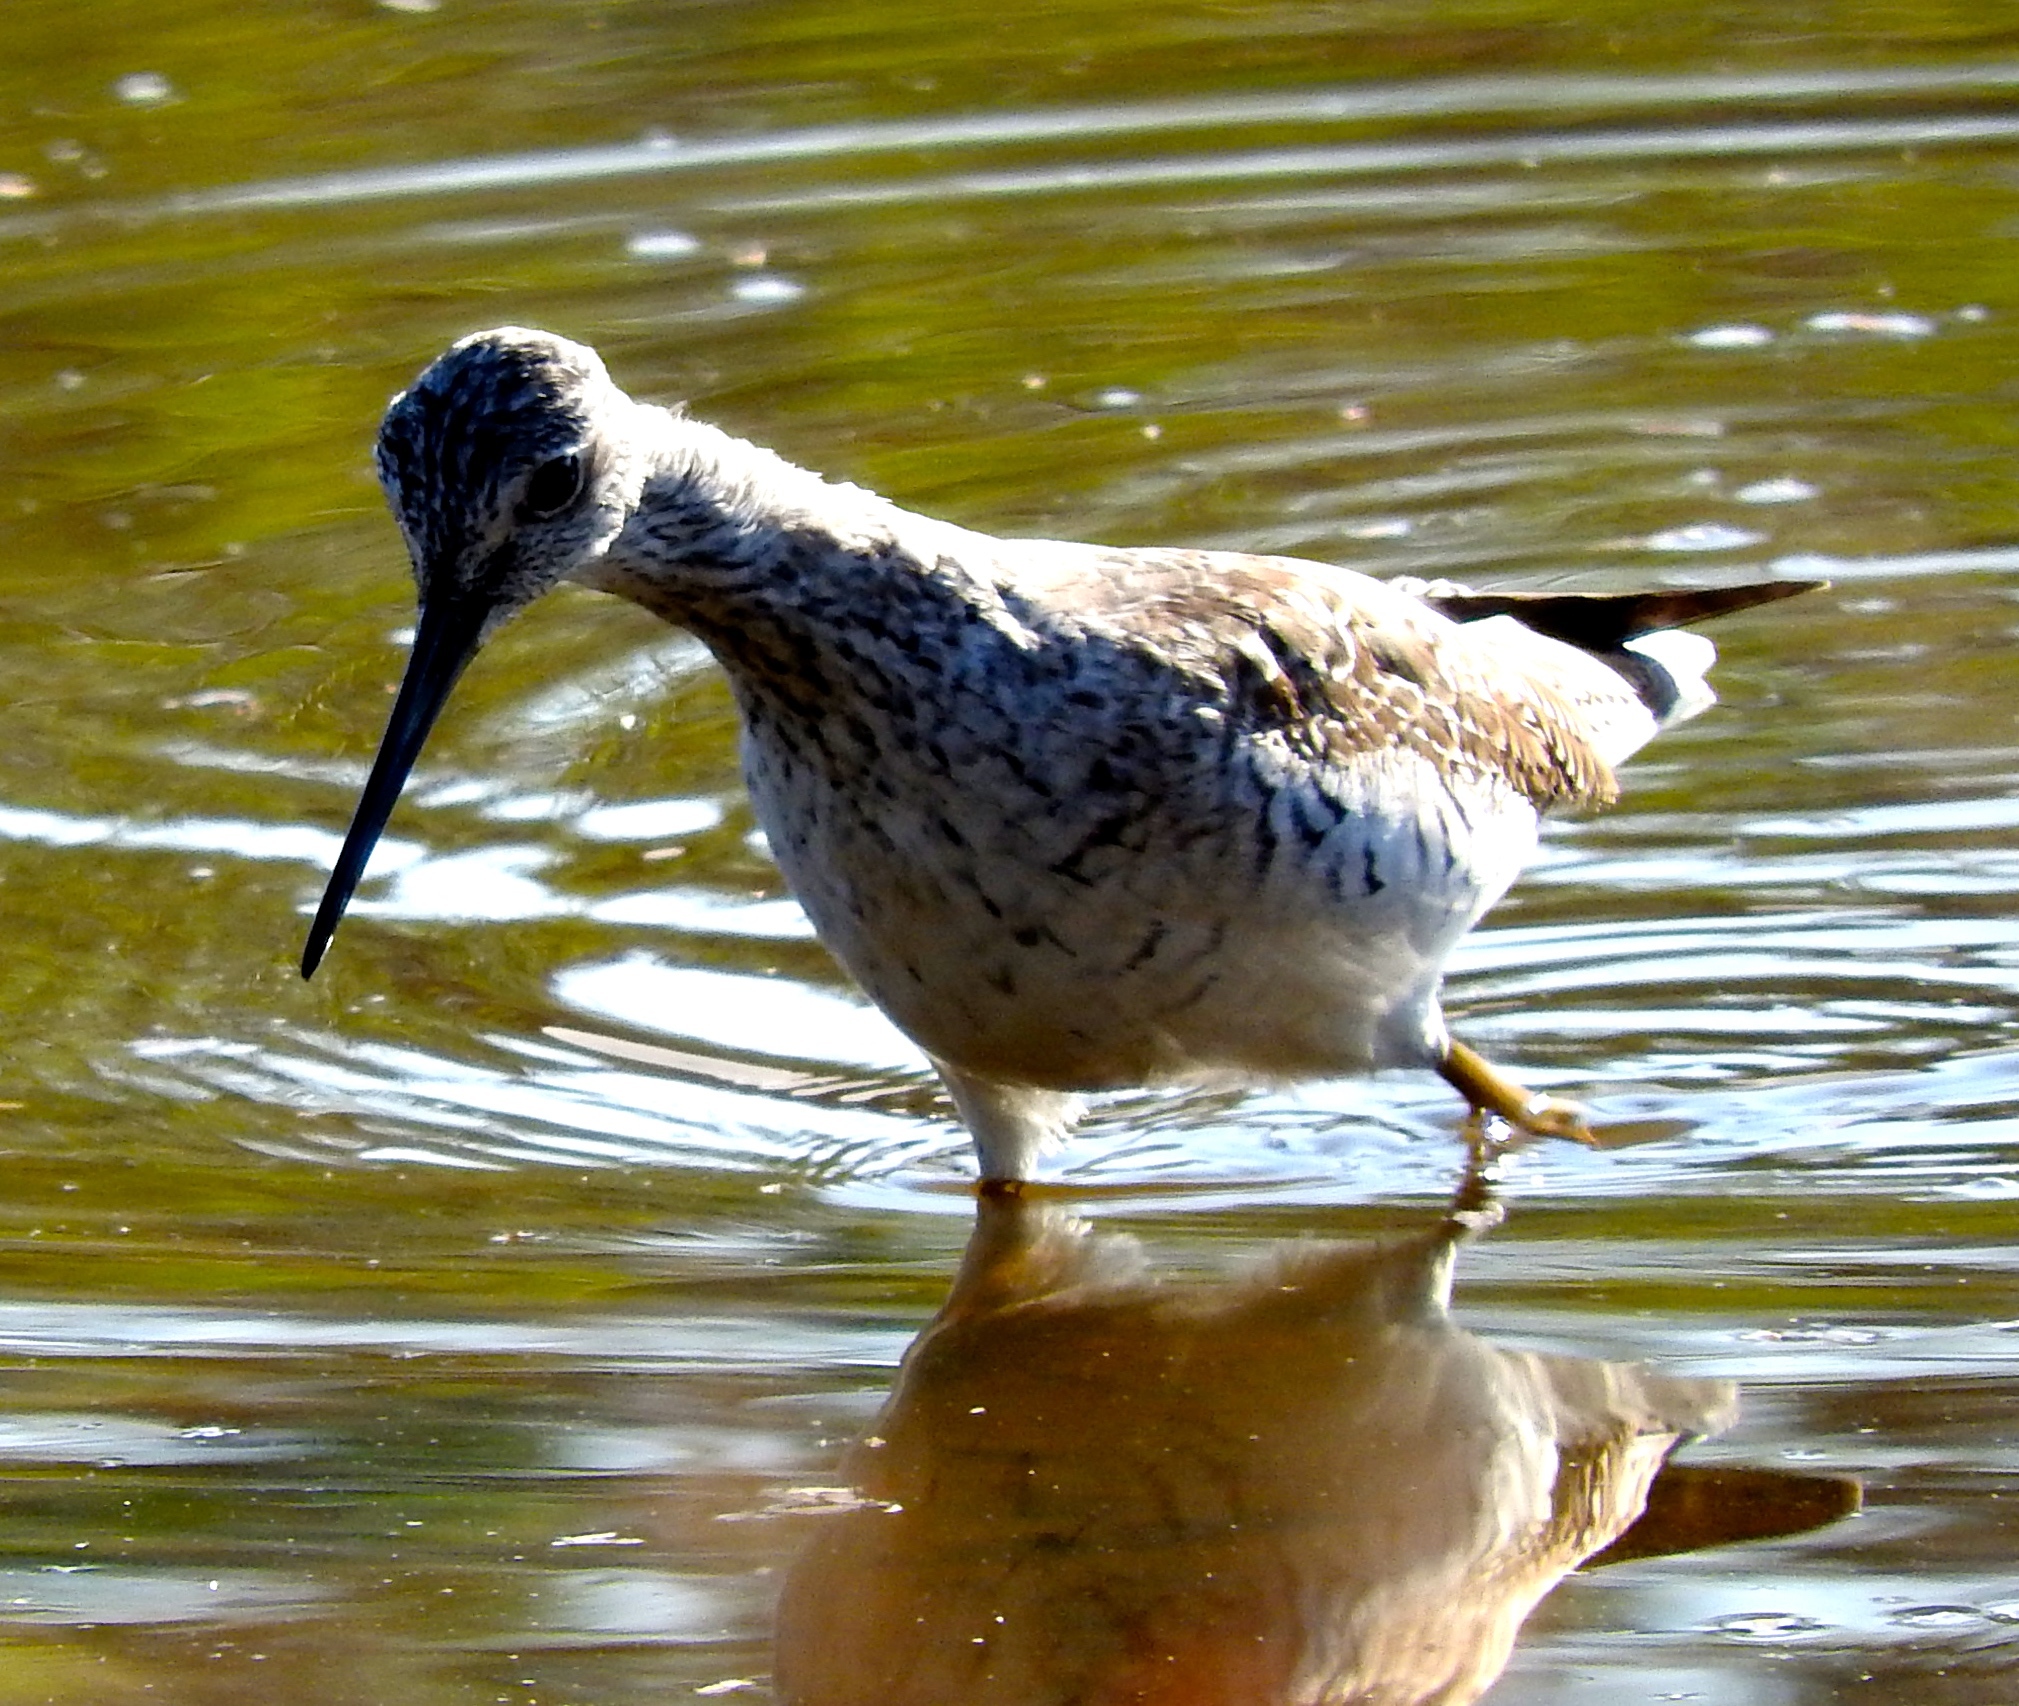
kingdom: Animalia
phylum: Chordata
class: Aves
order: Charadriiformes
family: Scolopacidae
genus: Tringa
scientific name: Tringa melanoleuca
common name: Greater yellowlegs
